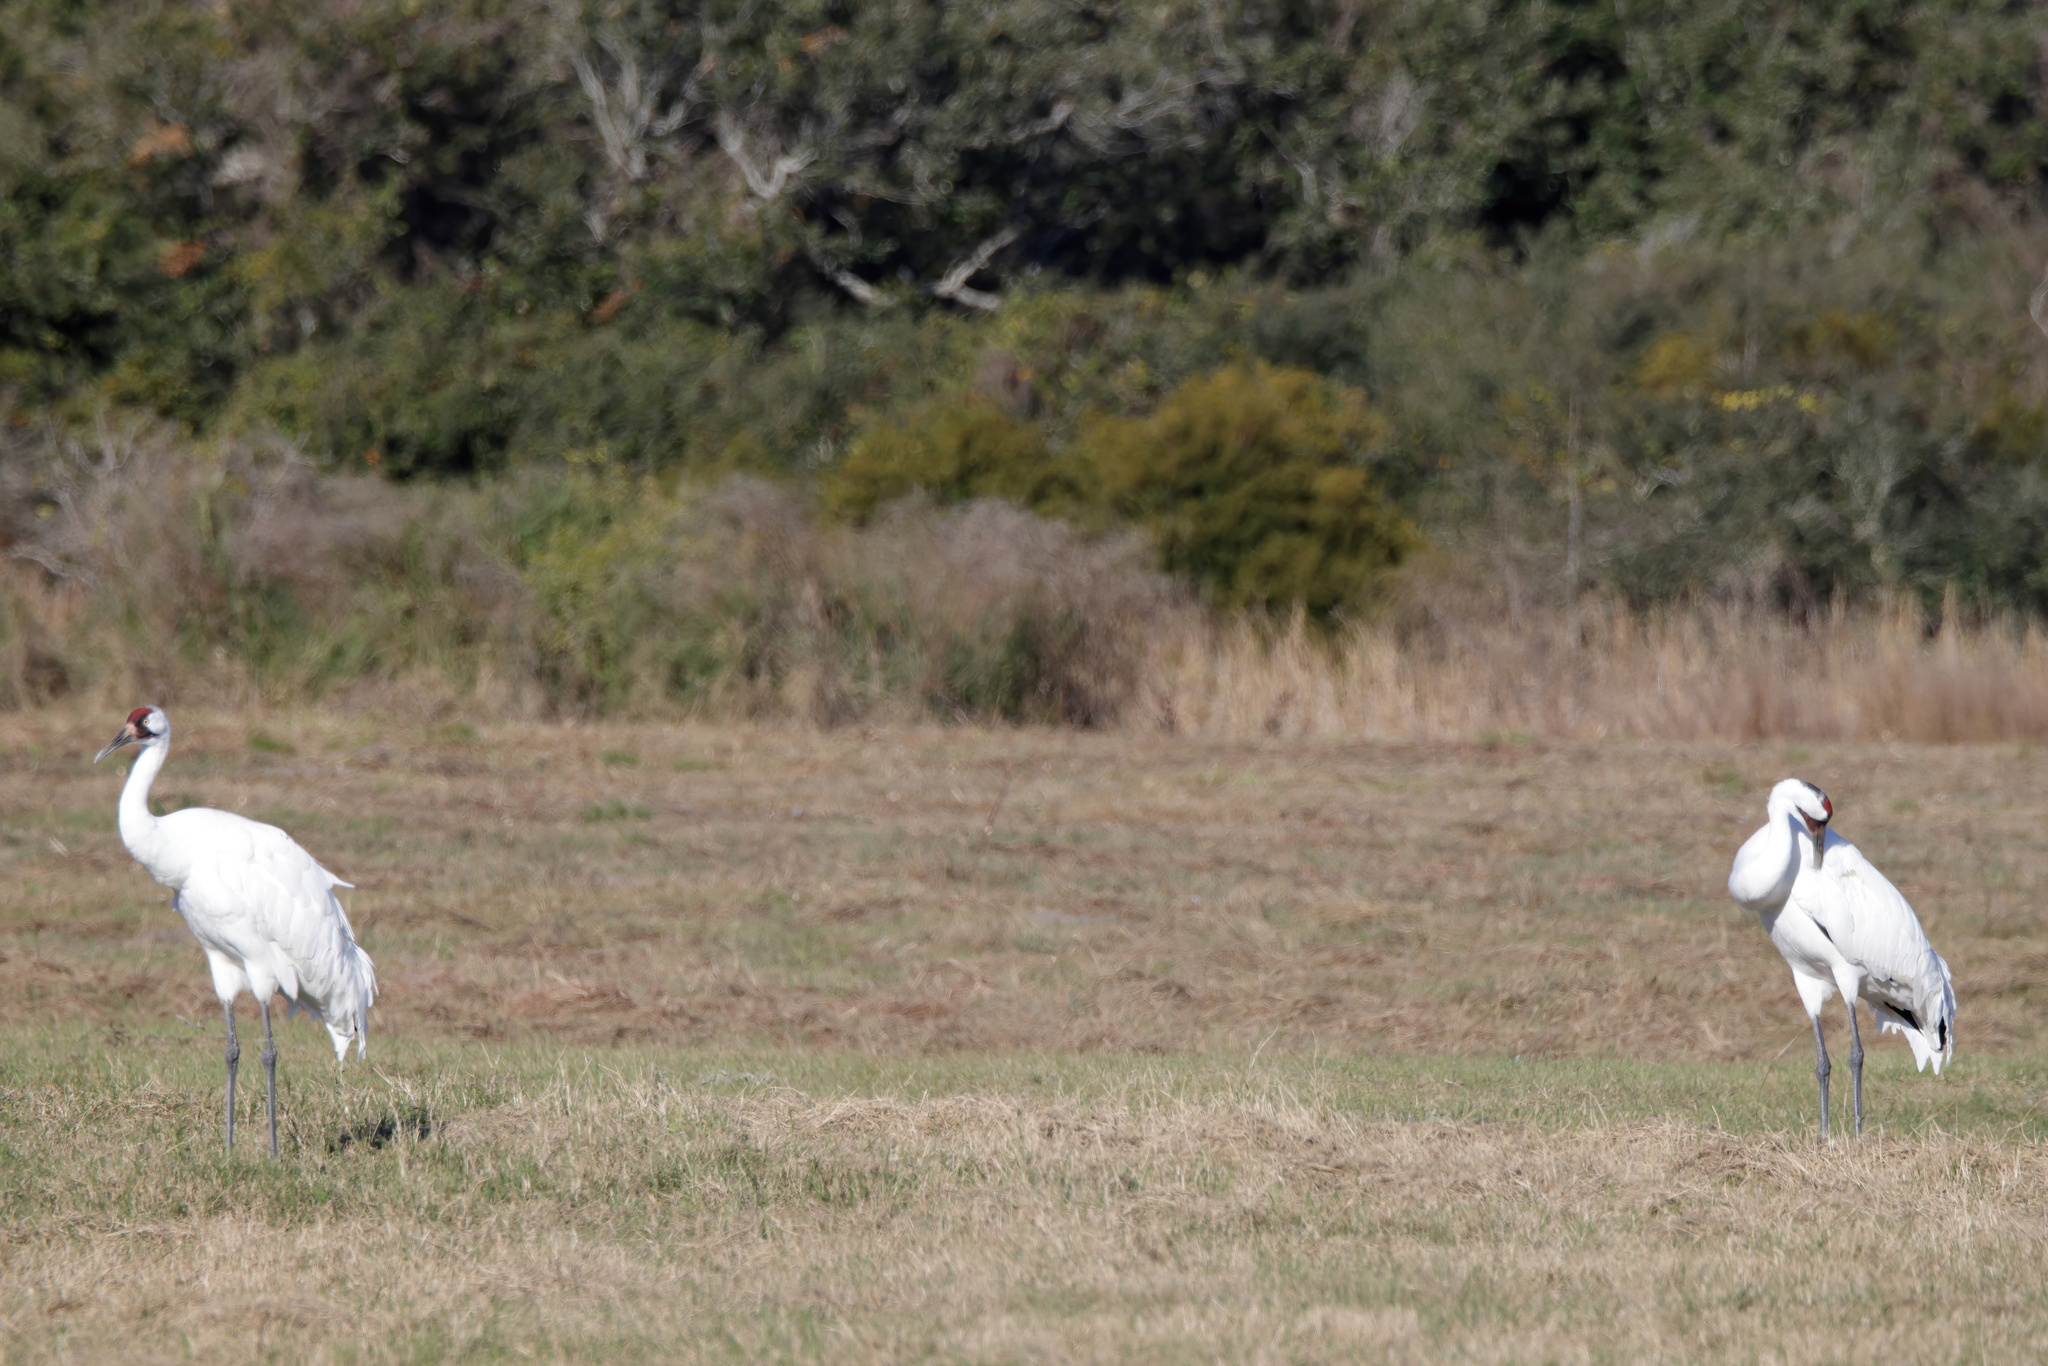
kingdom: Animalia
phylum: Chordata
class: Aves
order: Gruiformes
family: Gruidae
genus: Grus
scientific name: Grus americana
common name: Whooping crane
